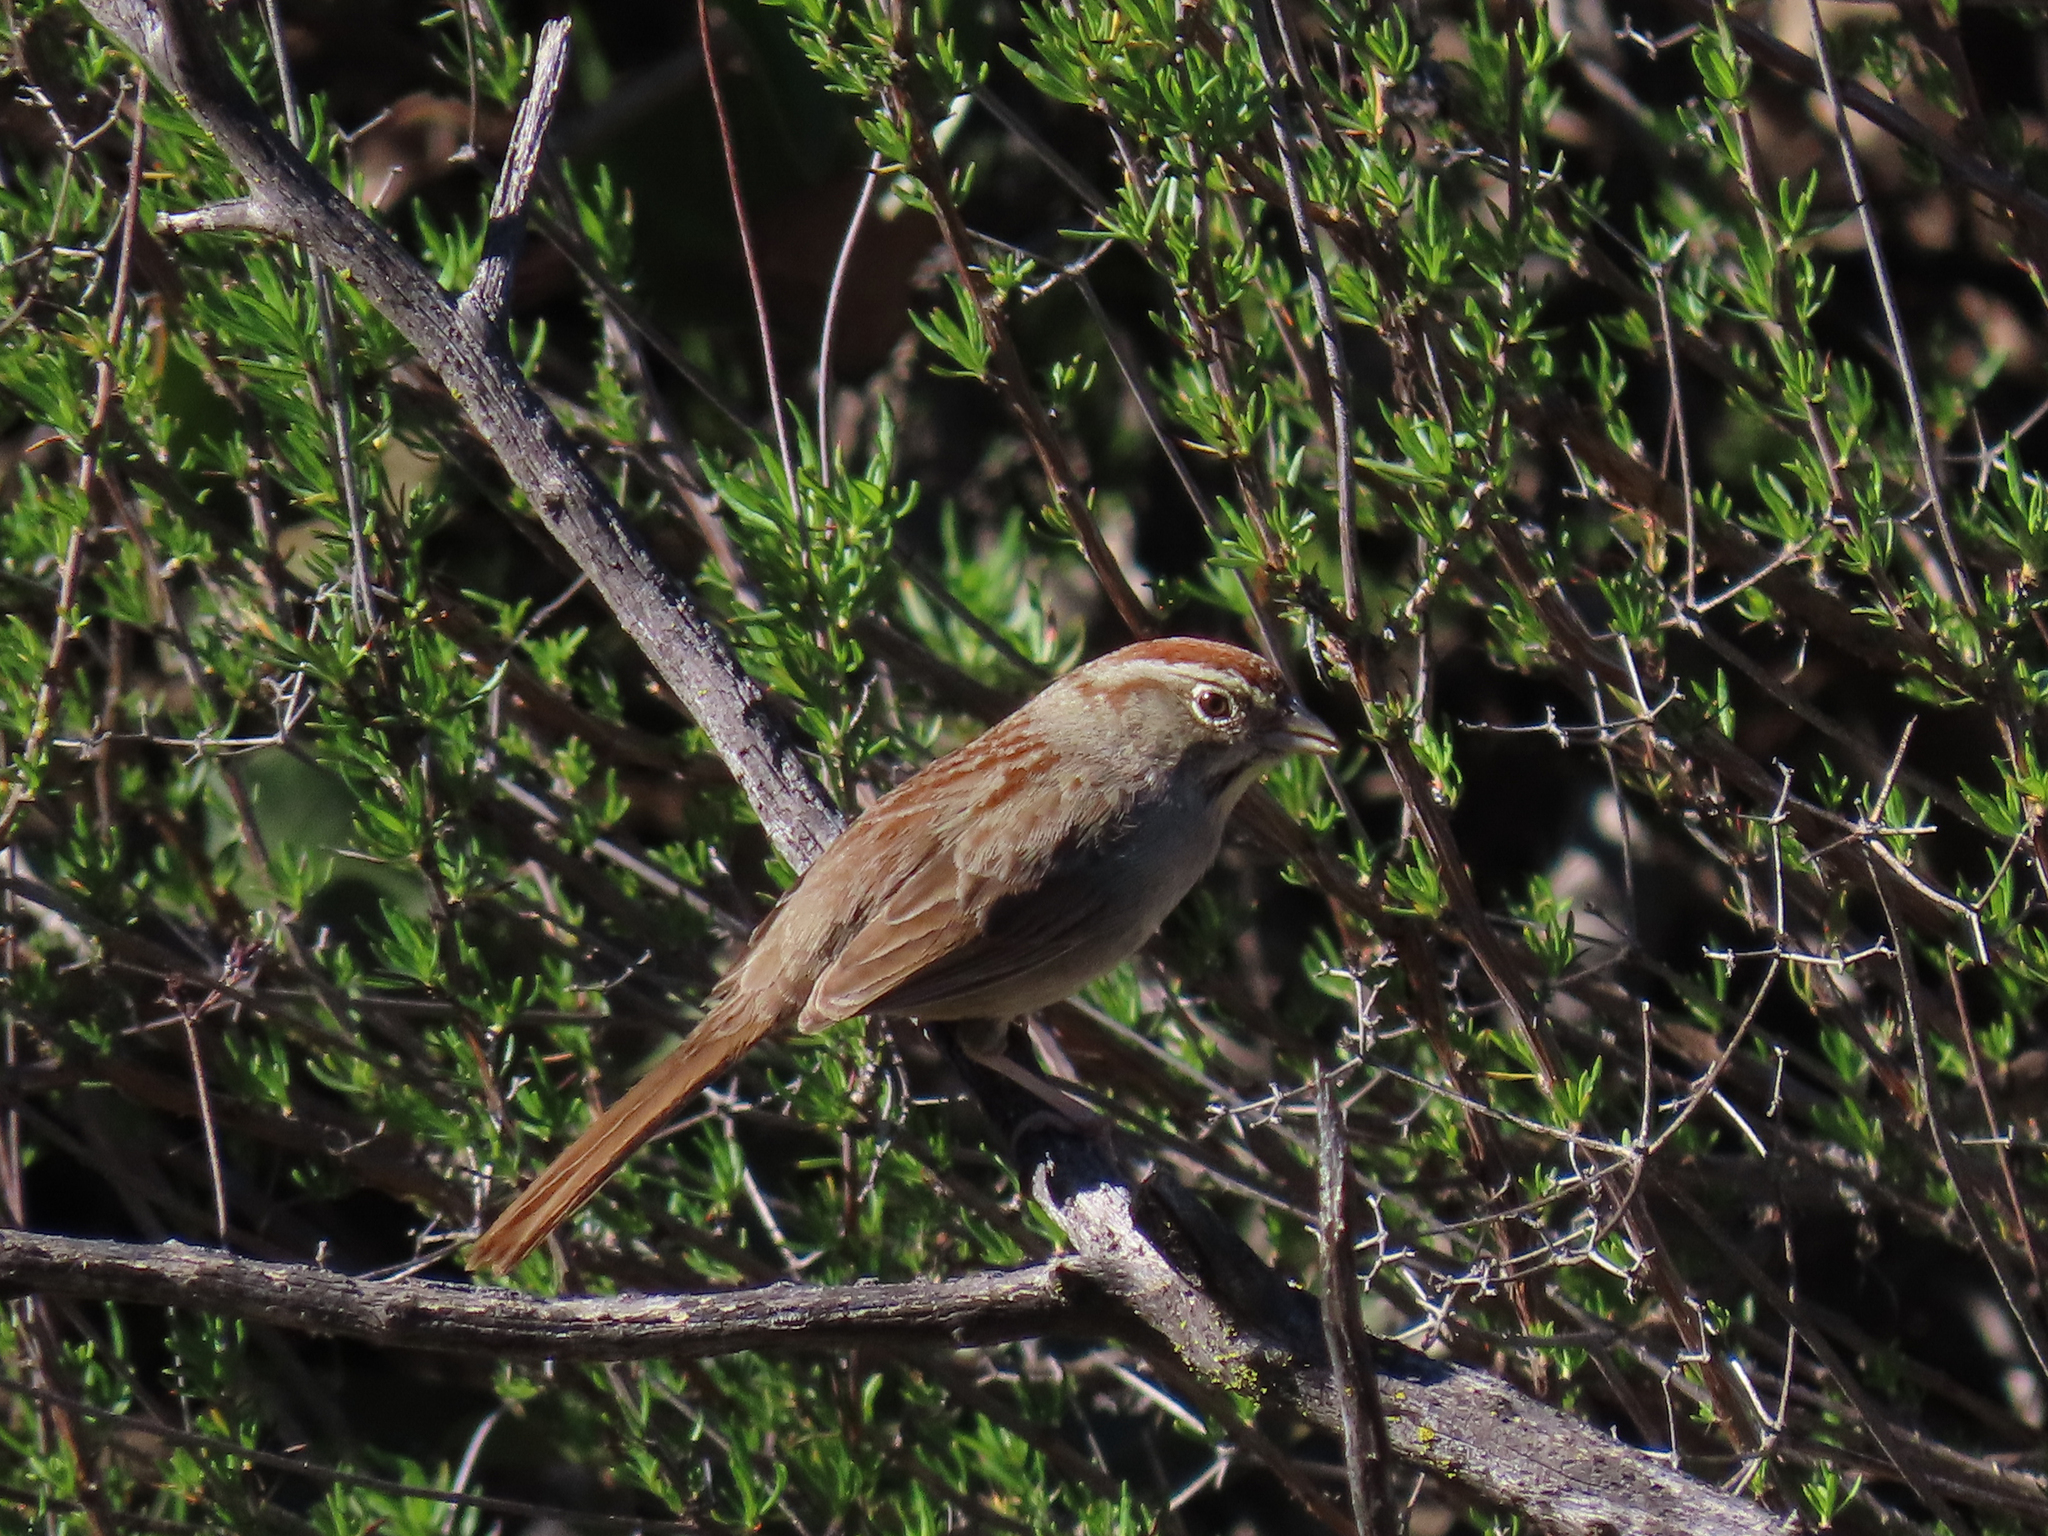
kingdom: Animalia
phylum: Chordata
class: Aves
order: Passeriformes
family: Passerellidae
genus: Aimophila
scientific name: Aimophila ruficeps
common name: Rufous-crowned sparrow
